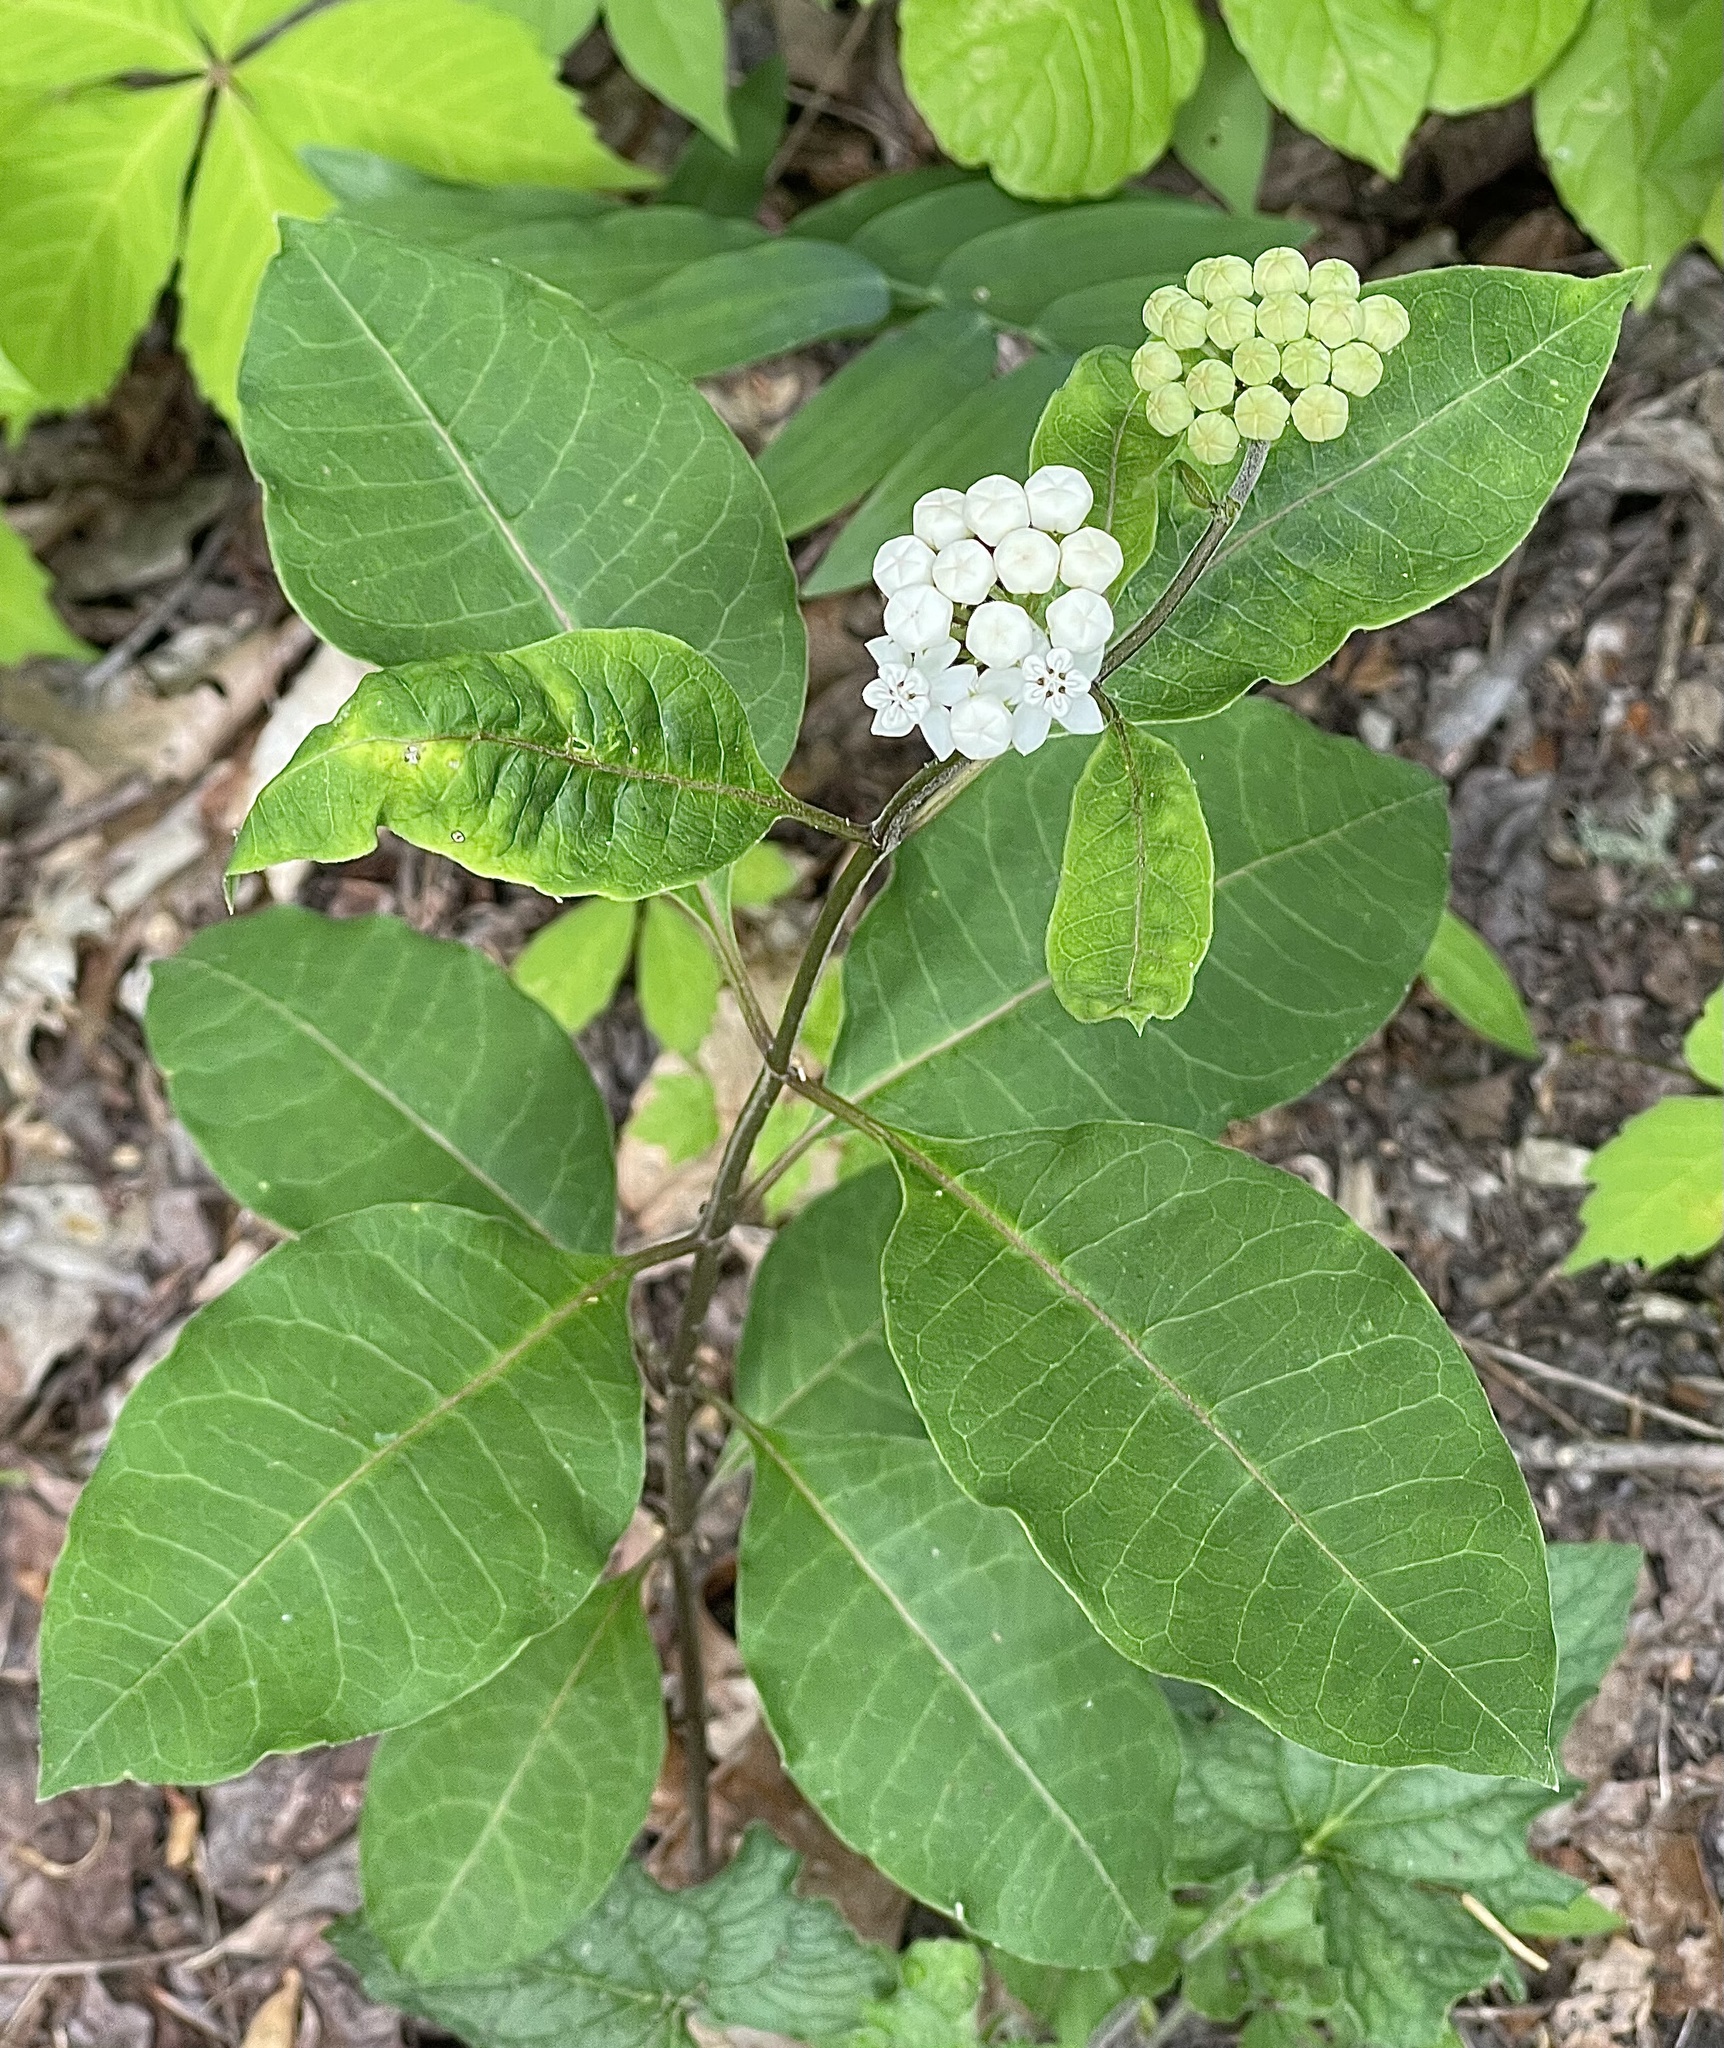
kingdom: Plantae
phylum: Tracheophyta
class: Magnoliopsida
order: Gentianales
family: Apocynaceae
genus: Asclepias
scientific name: Asclepias variegata
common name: Variegated milkweed
